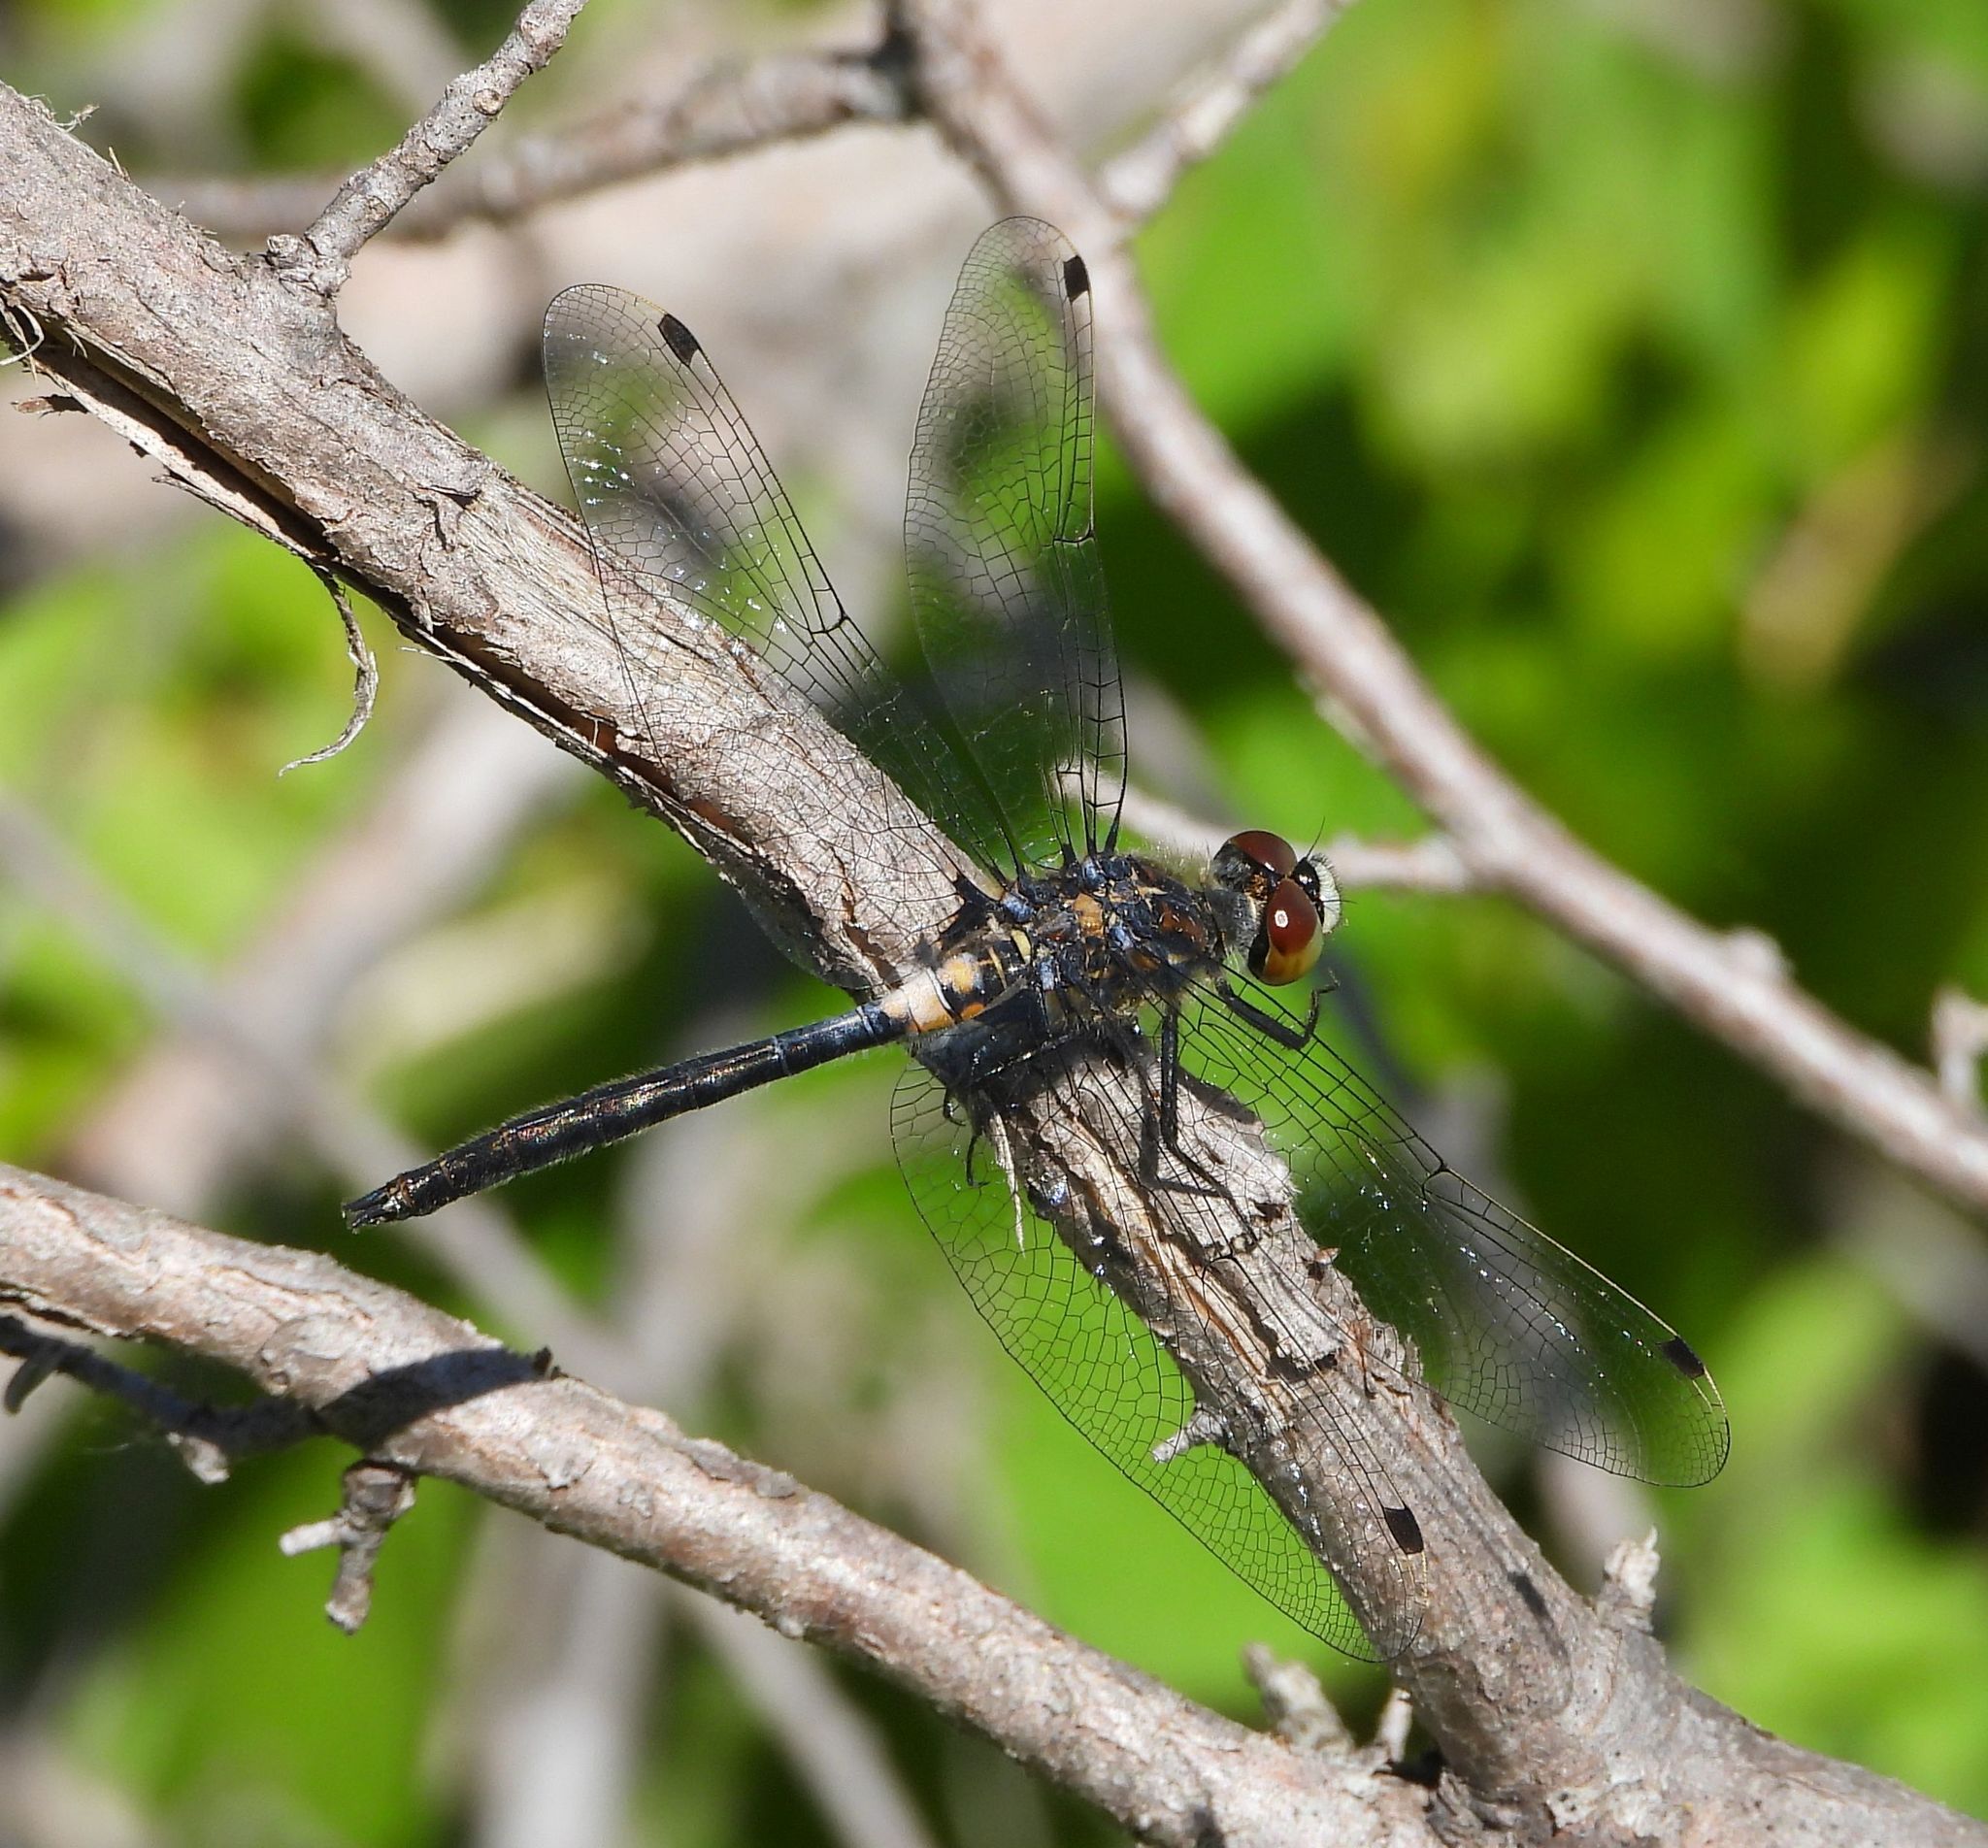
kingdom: Animalia
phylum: Arthropoda
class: Insecta
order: Odonata
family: Libellulidae
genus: Leucorrhinia
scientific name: Leucorrhinia proxima
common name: Belted whiteface
